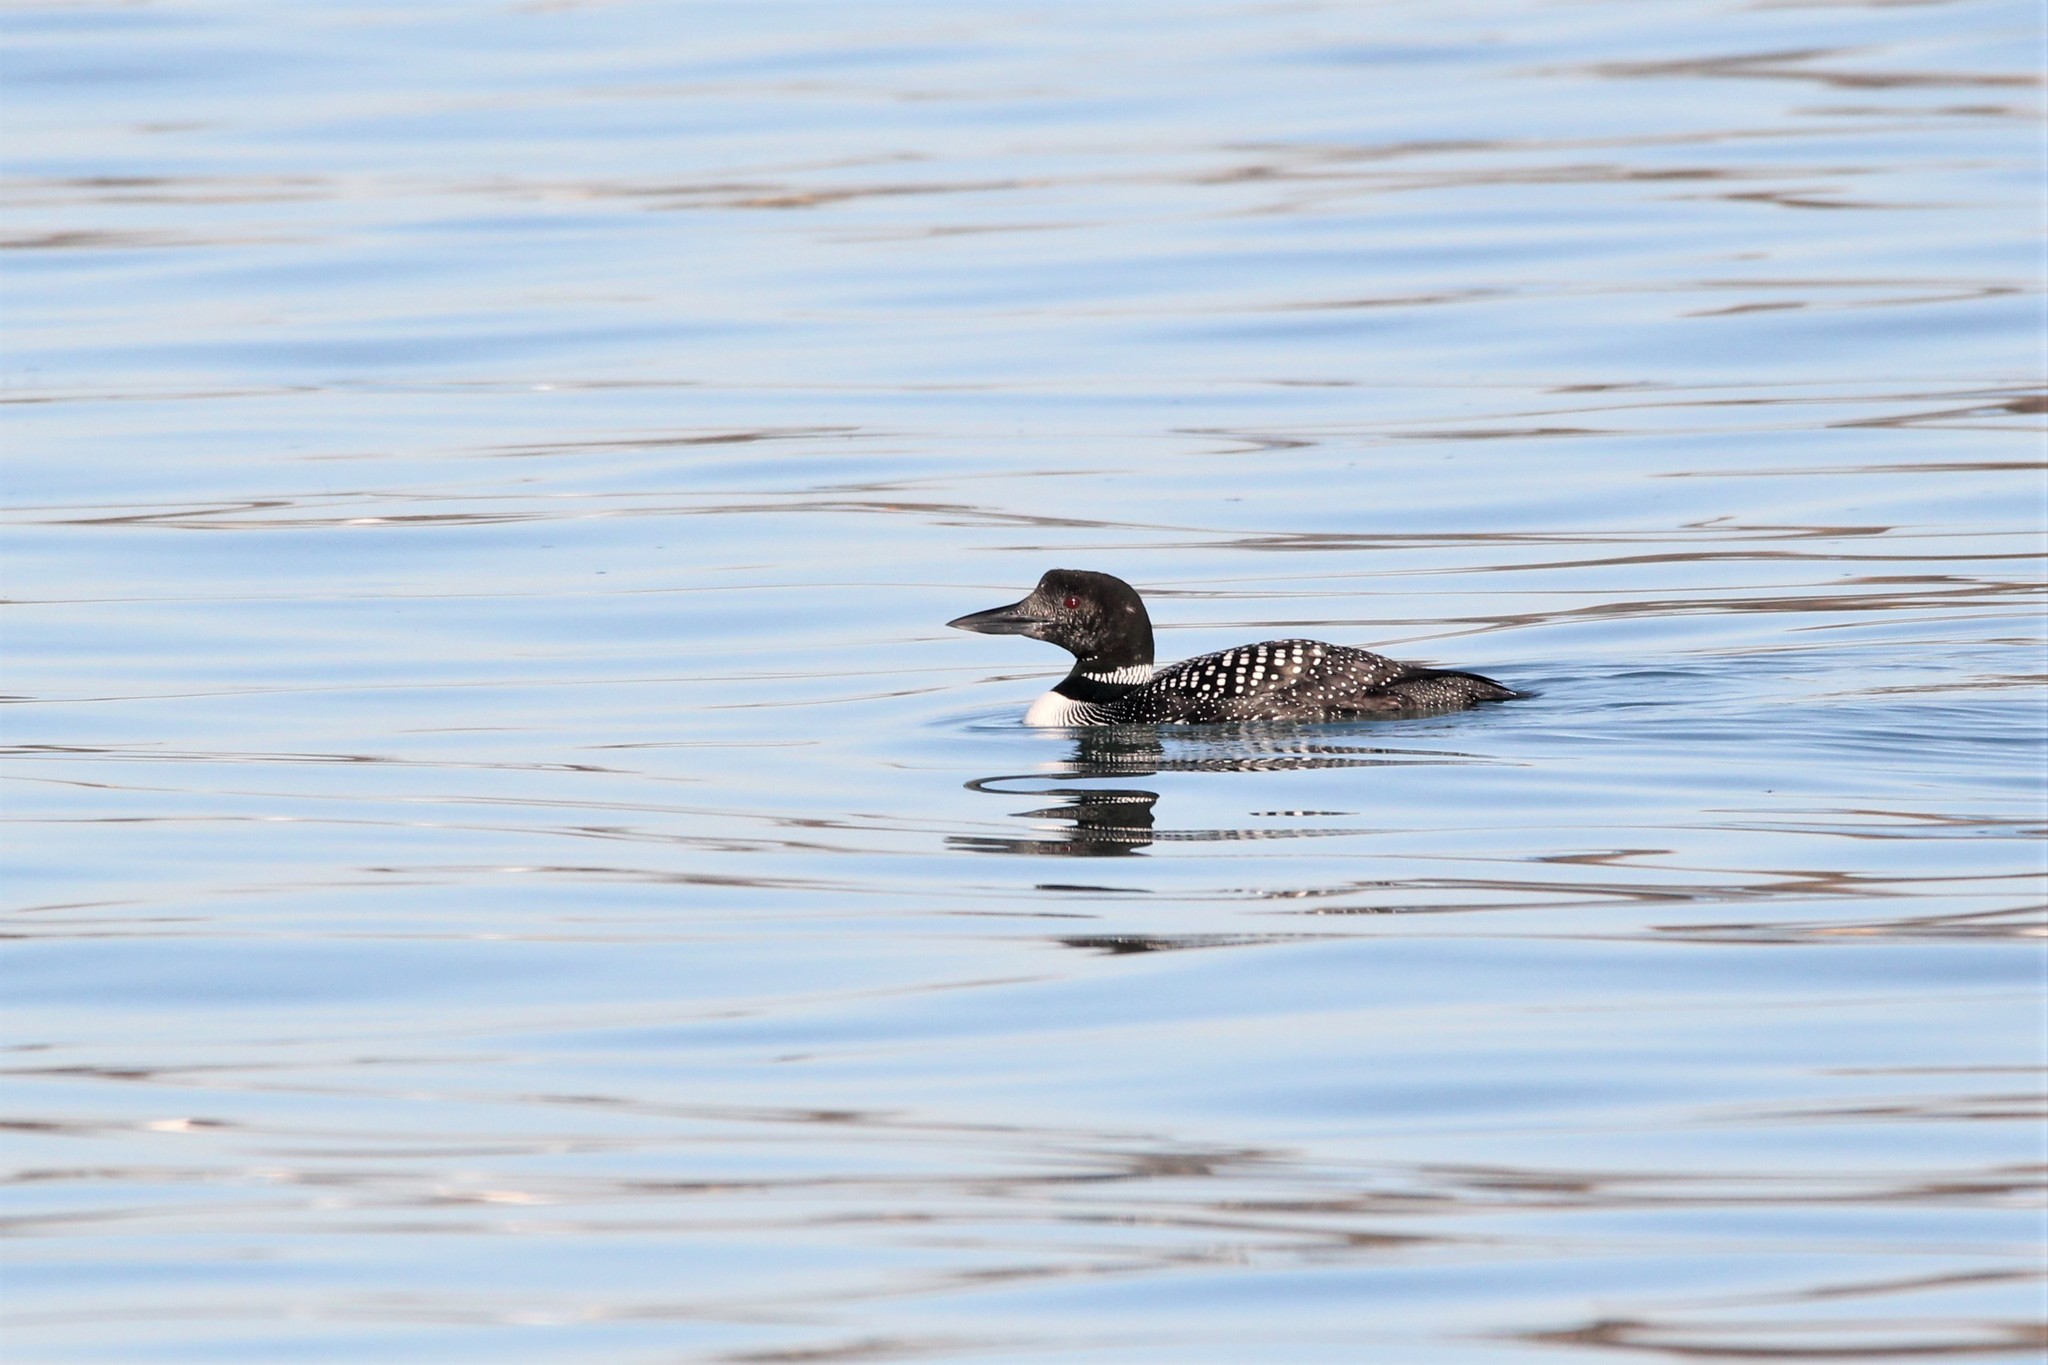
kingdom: Animalia
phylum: Chordata
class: Aves
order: Gaviiformes
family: Gaviidae
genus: Gavia
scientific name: Gavia immer
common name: Common loon
